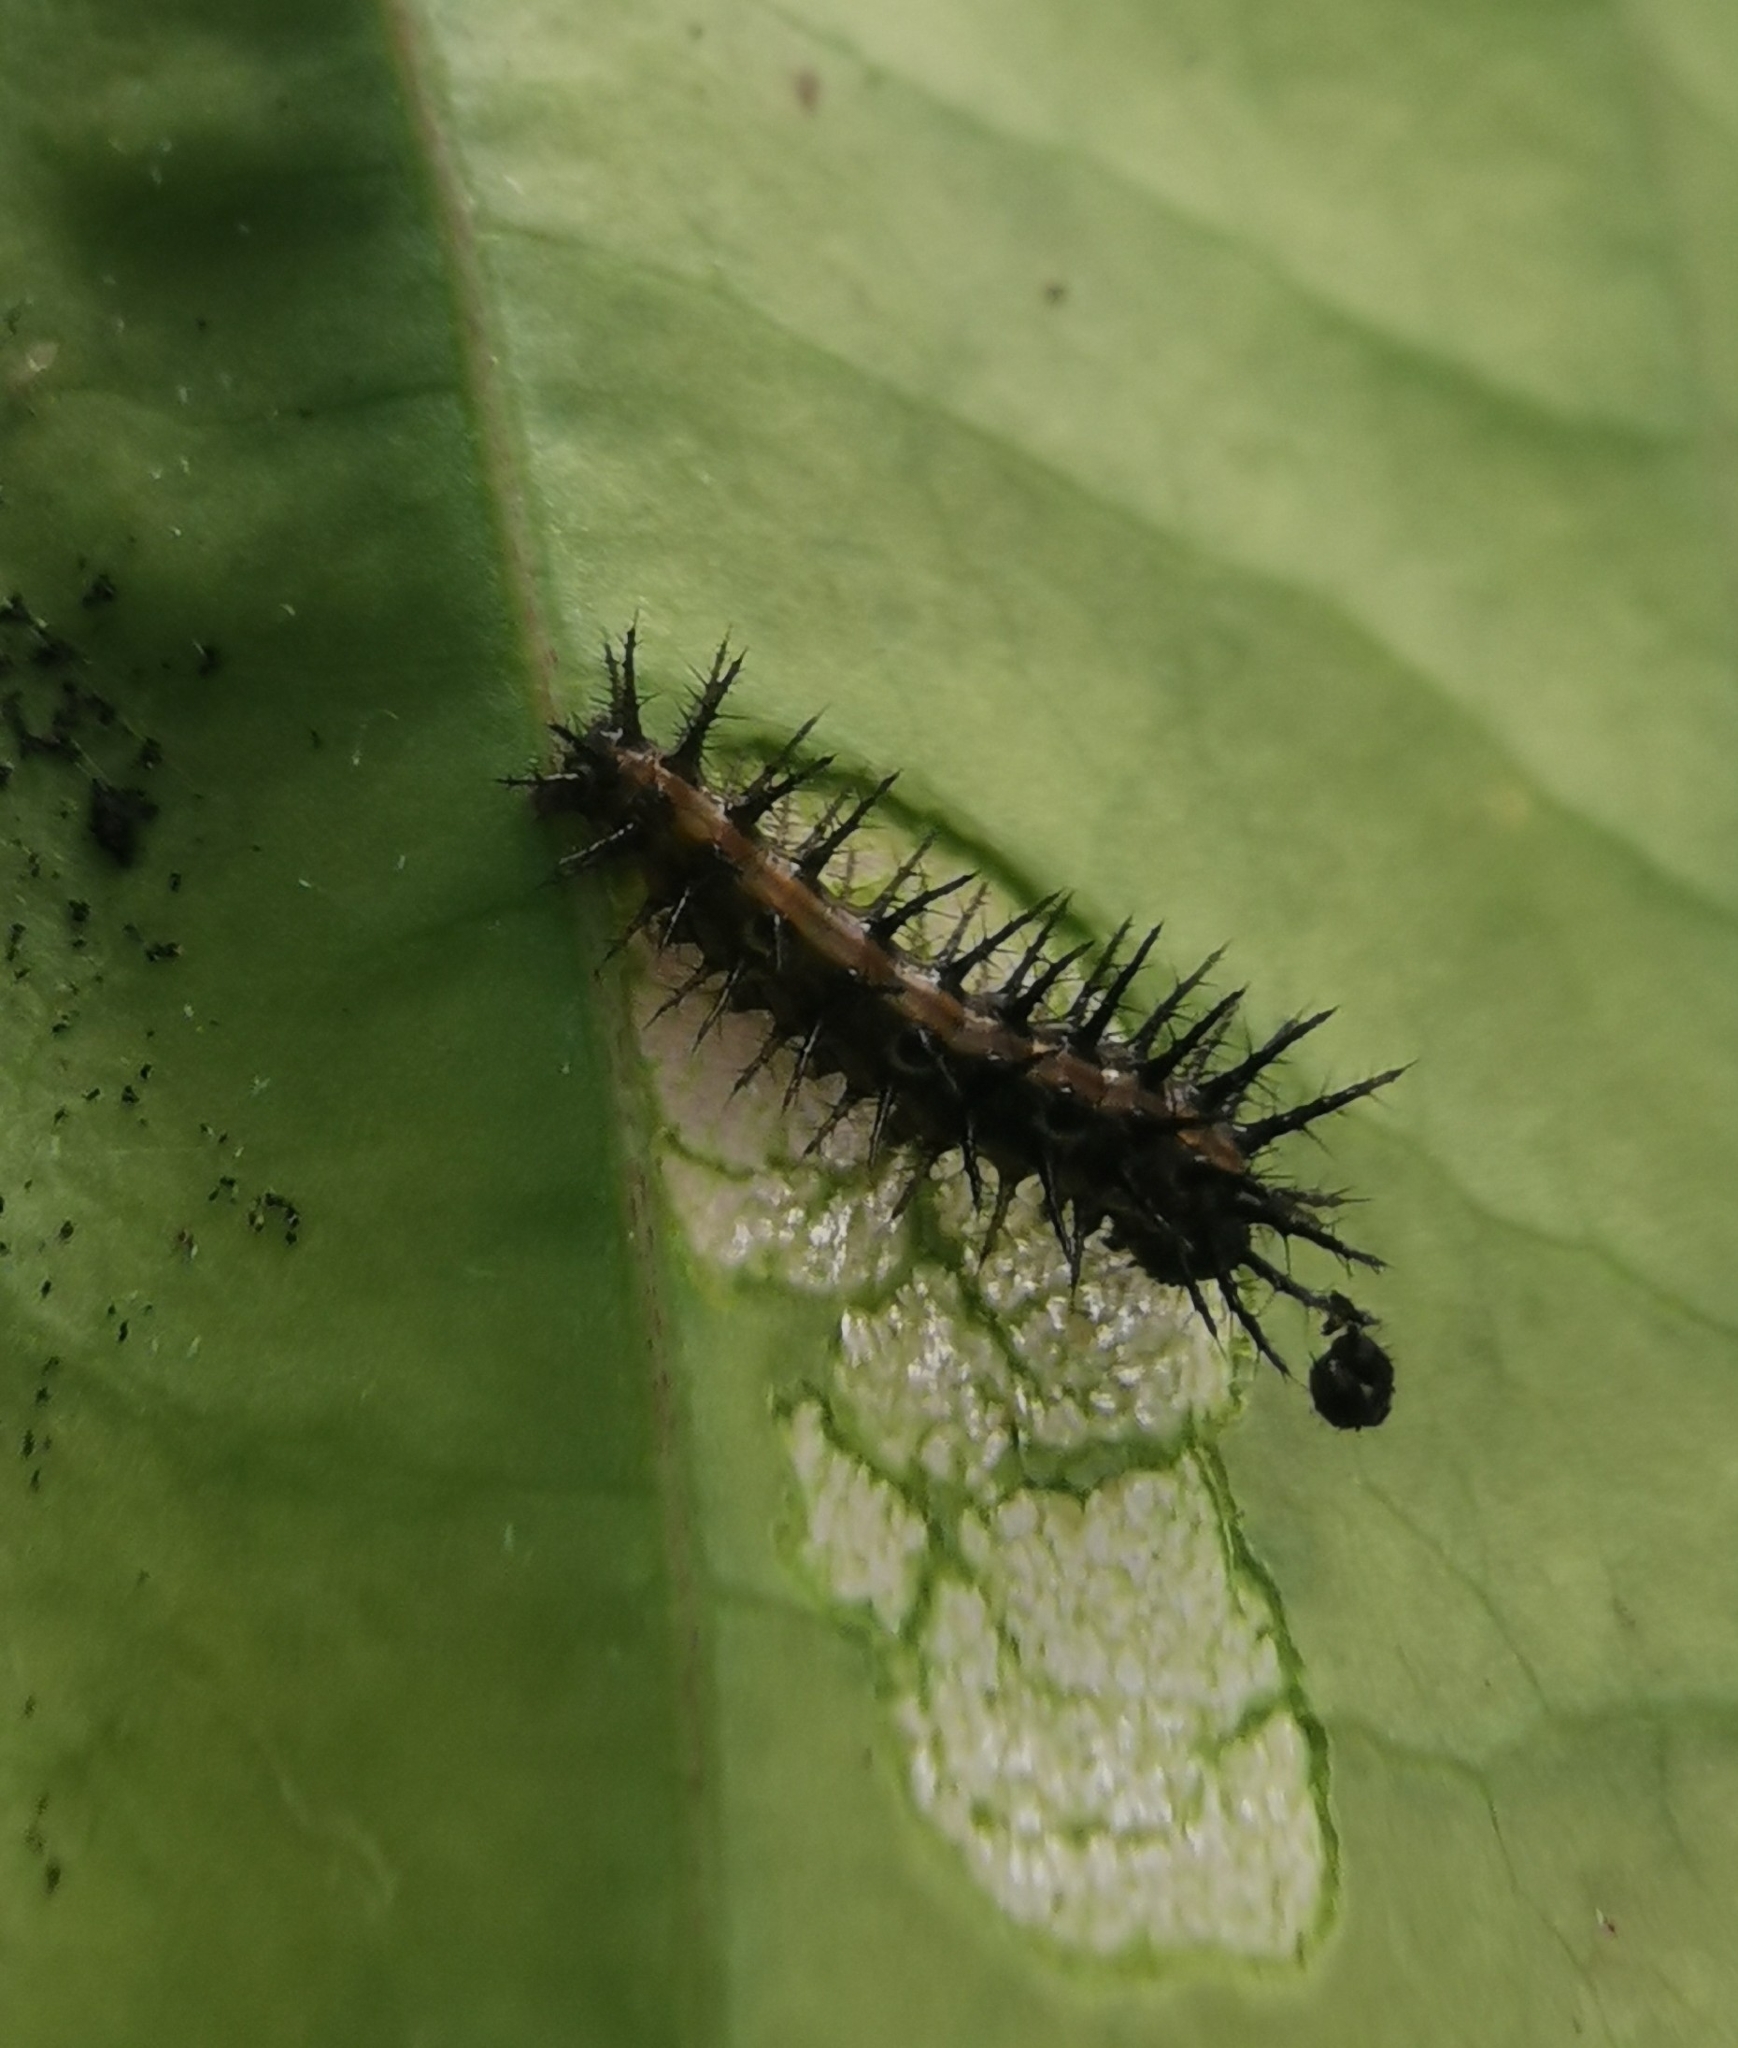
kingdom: Animalia
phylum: Arthropoda
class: Insecta
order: Lepidoptera
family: Nymphalidae
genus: Dione
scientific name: Dione vanillae
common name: Gulf fritillary
